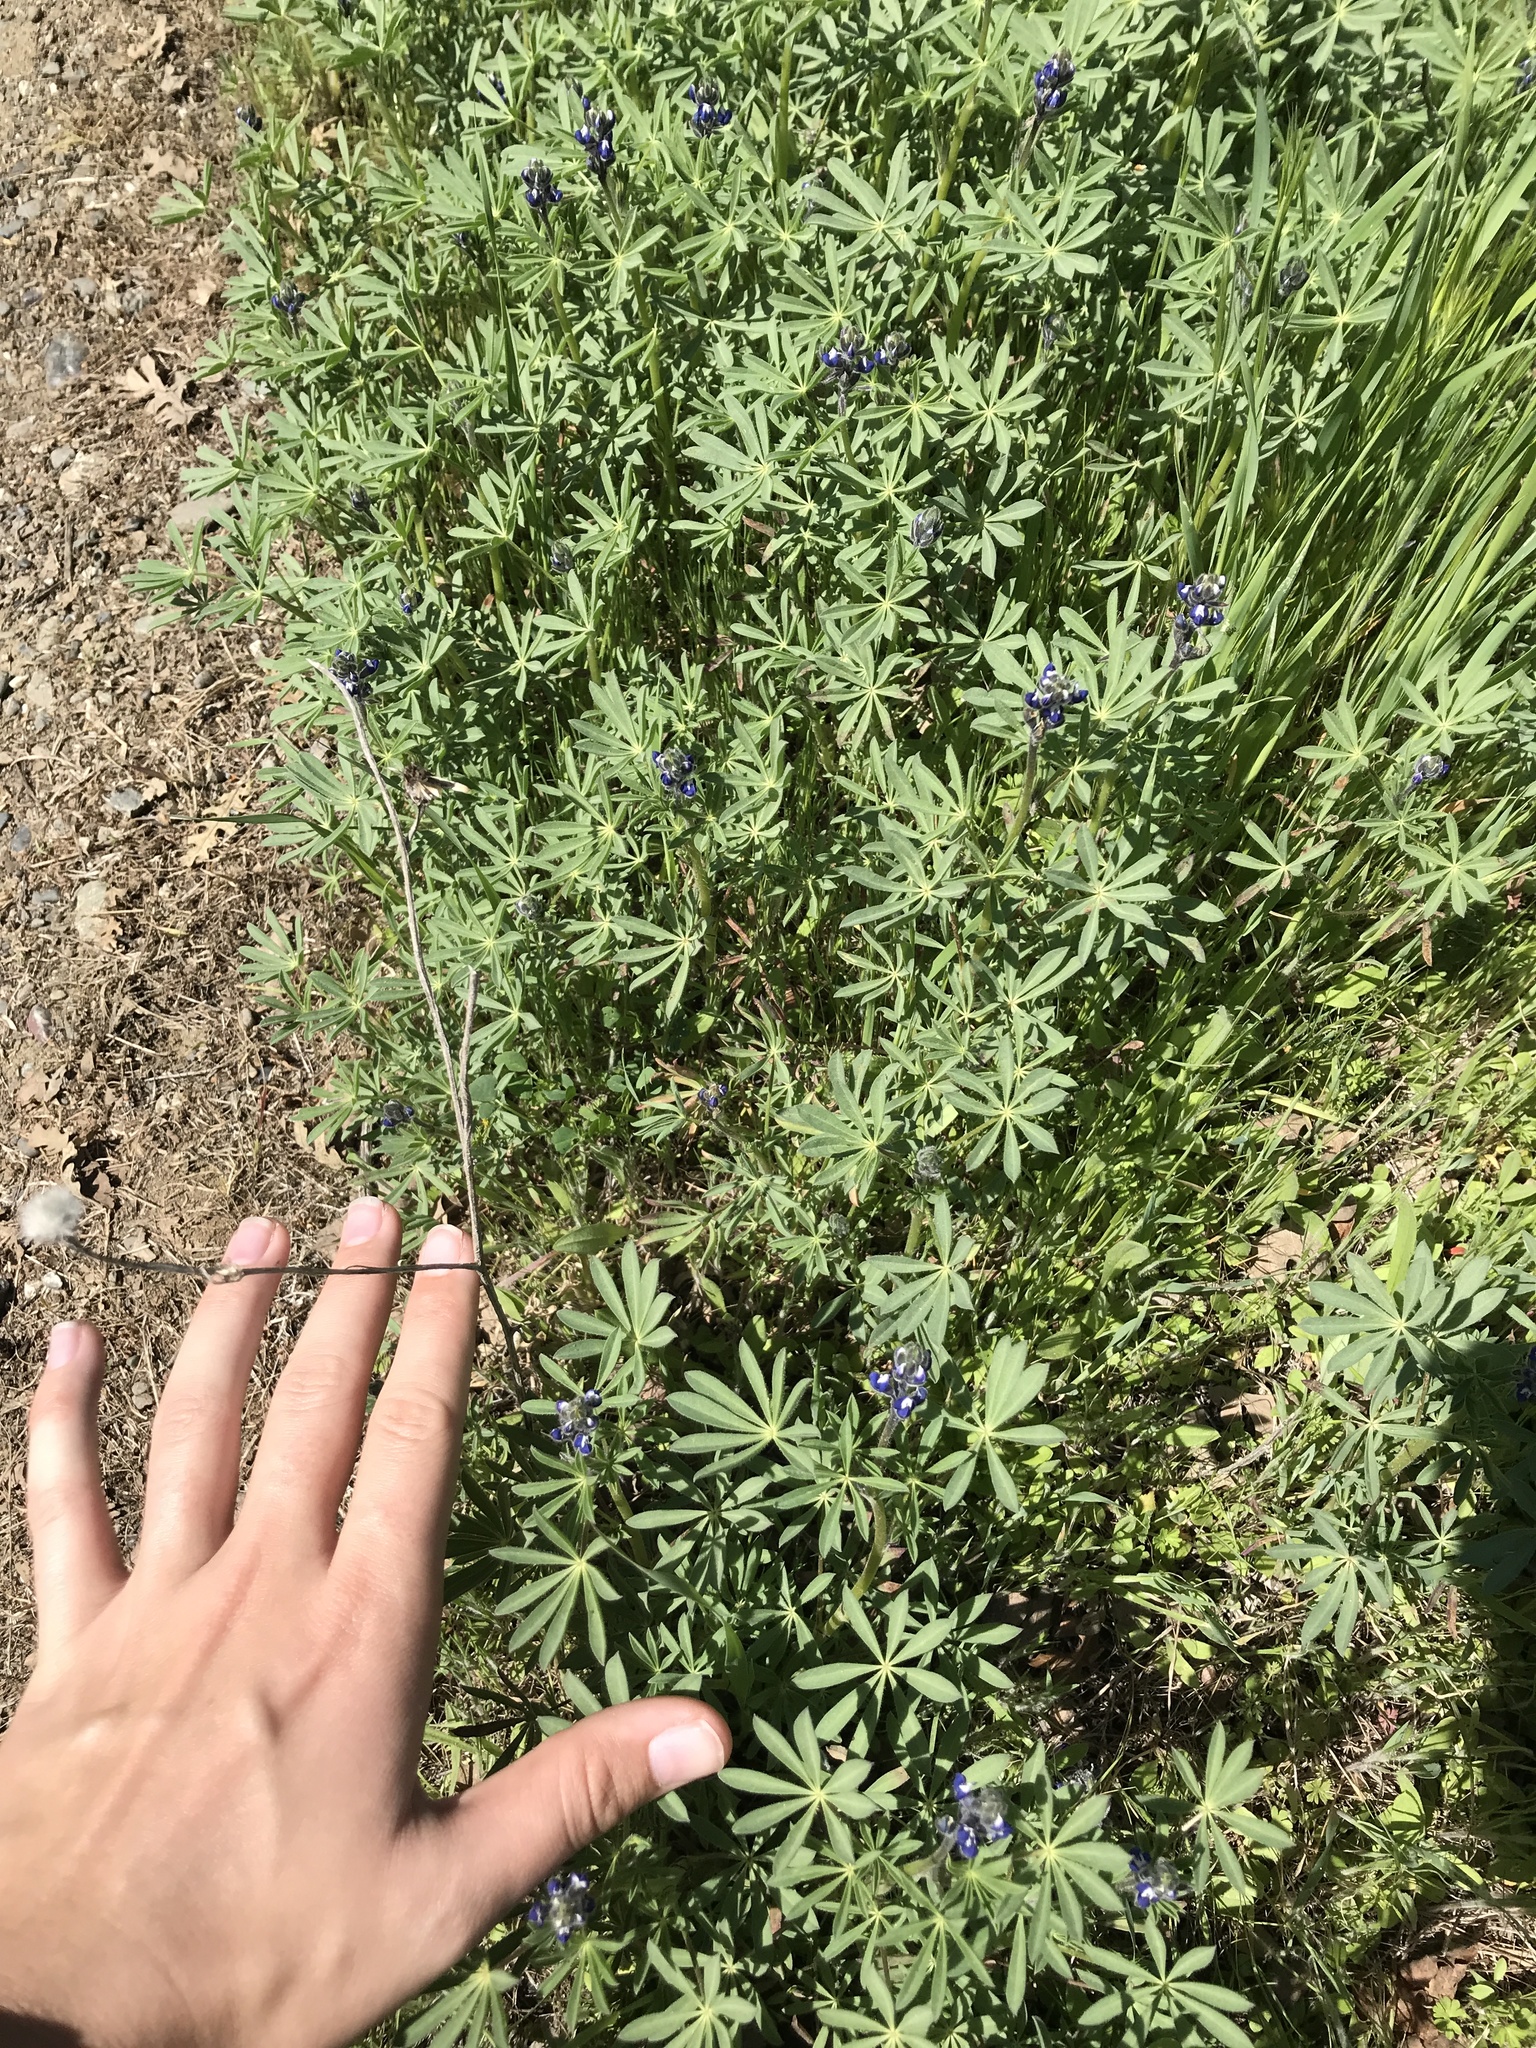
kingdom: Plantae
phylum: Tracheophyta
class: Magnoliopsida
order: Fabales
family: Fabaceae
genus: Lupinus
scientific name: Lupinus bicolor
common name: Miniature lupine
